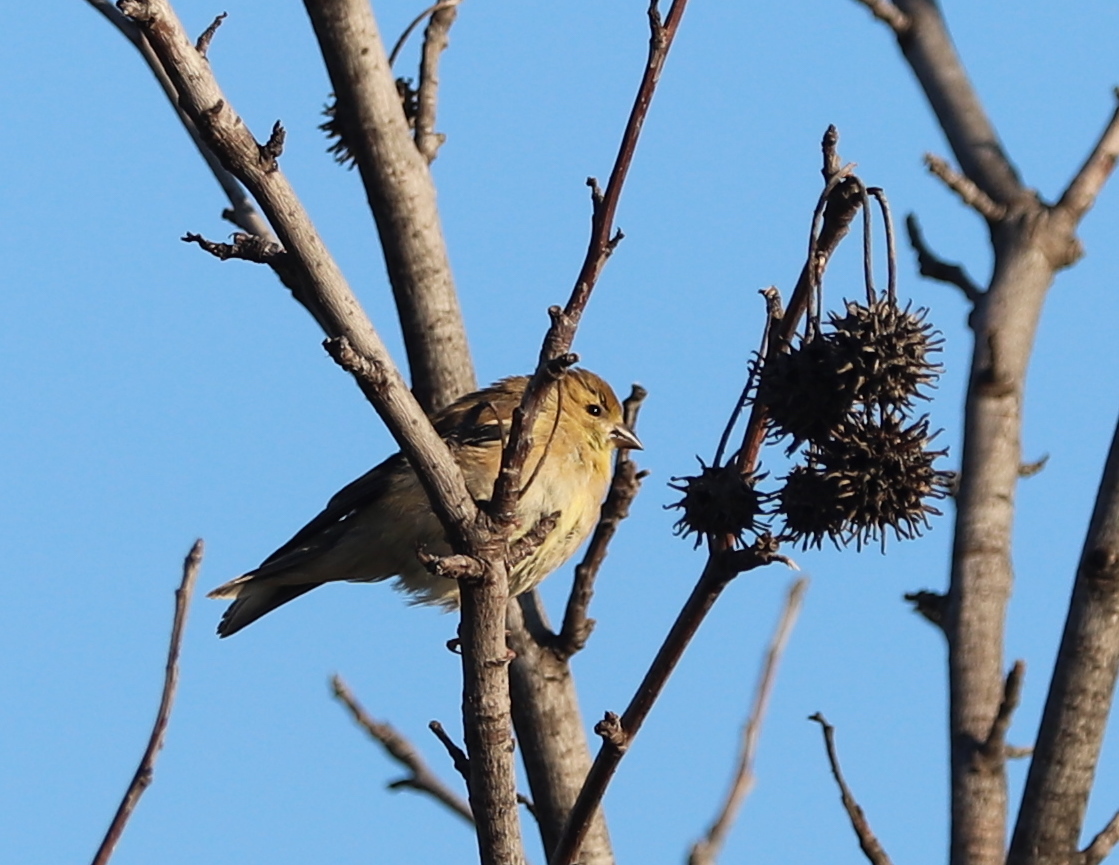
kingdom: Animalia
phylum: Chordata
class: Aves
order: Passeriformes
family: Fringillidae
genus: Spinus
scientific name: Spinus tristis
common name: American goldfinch
